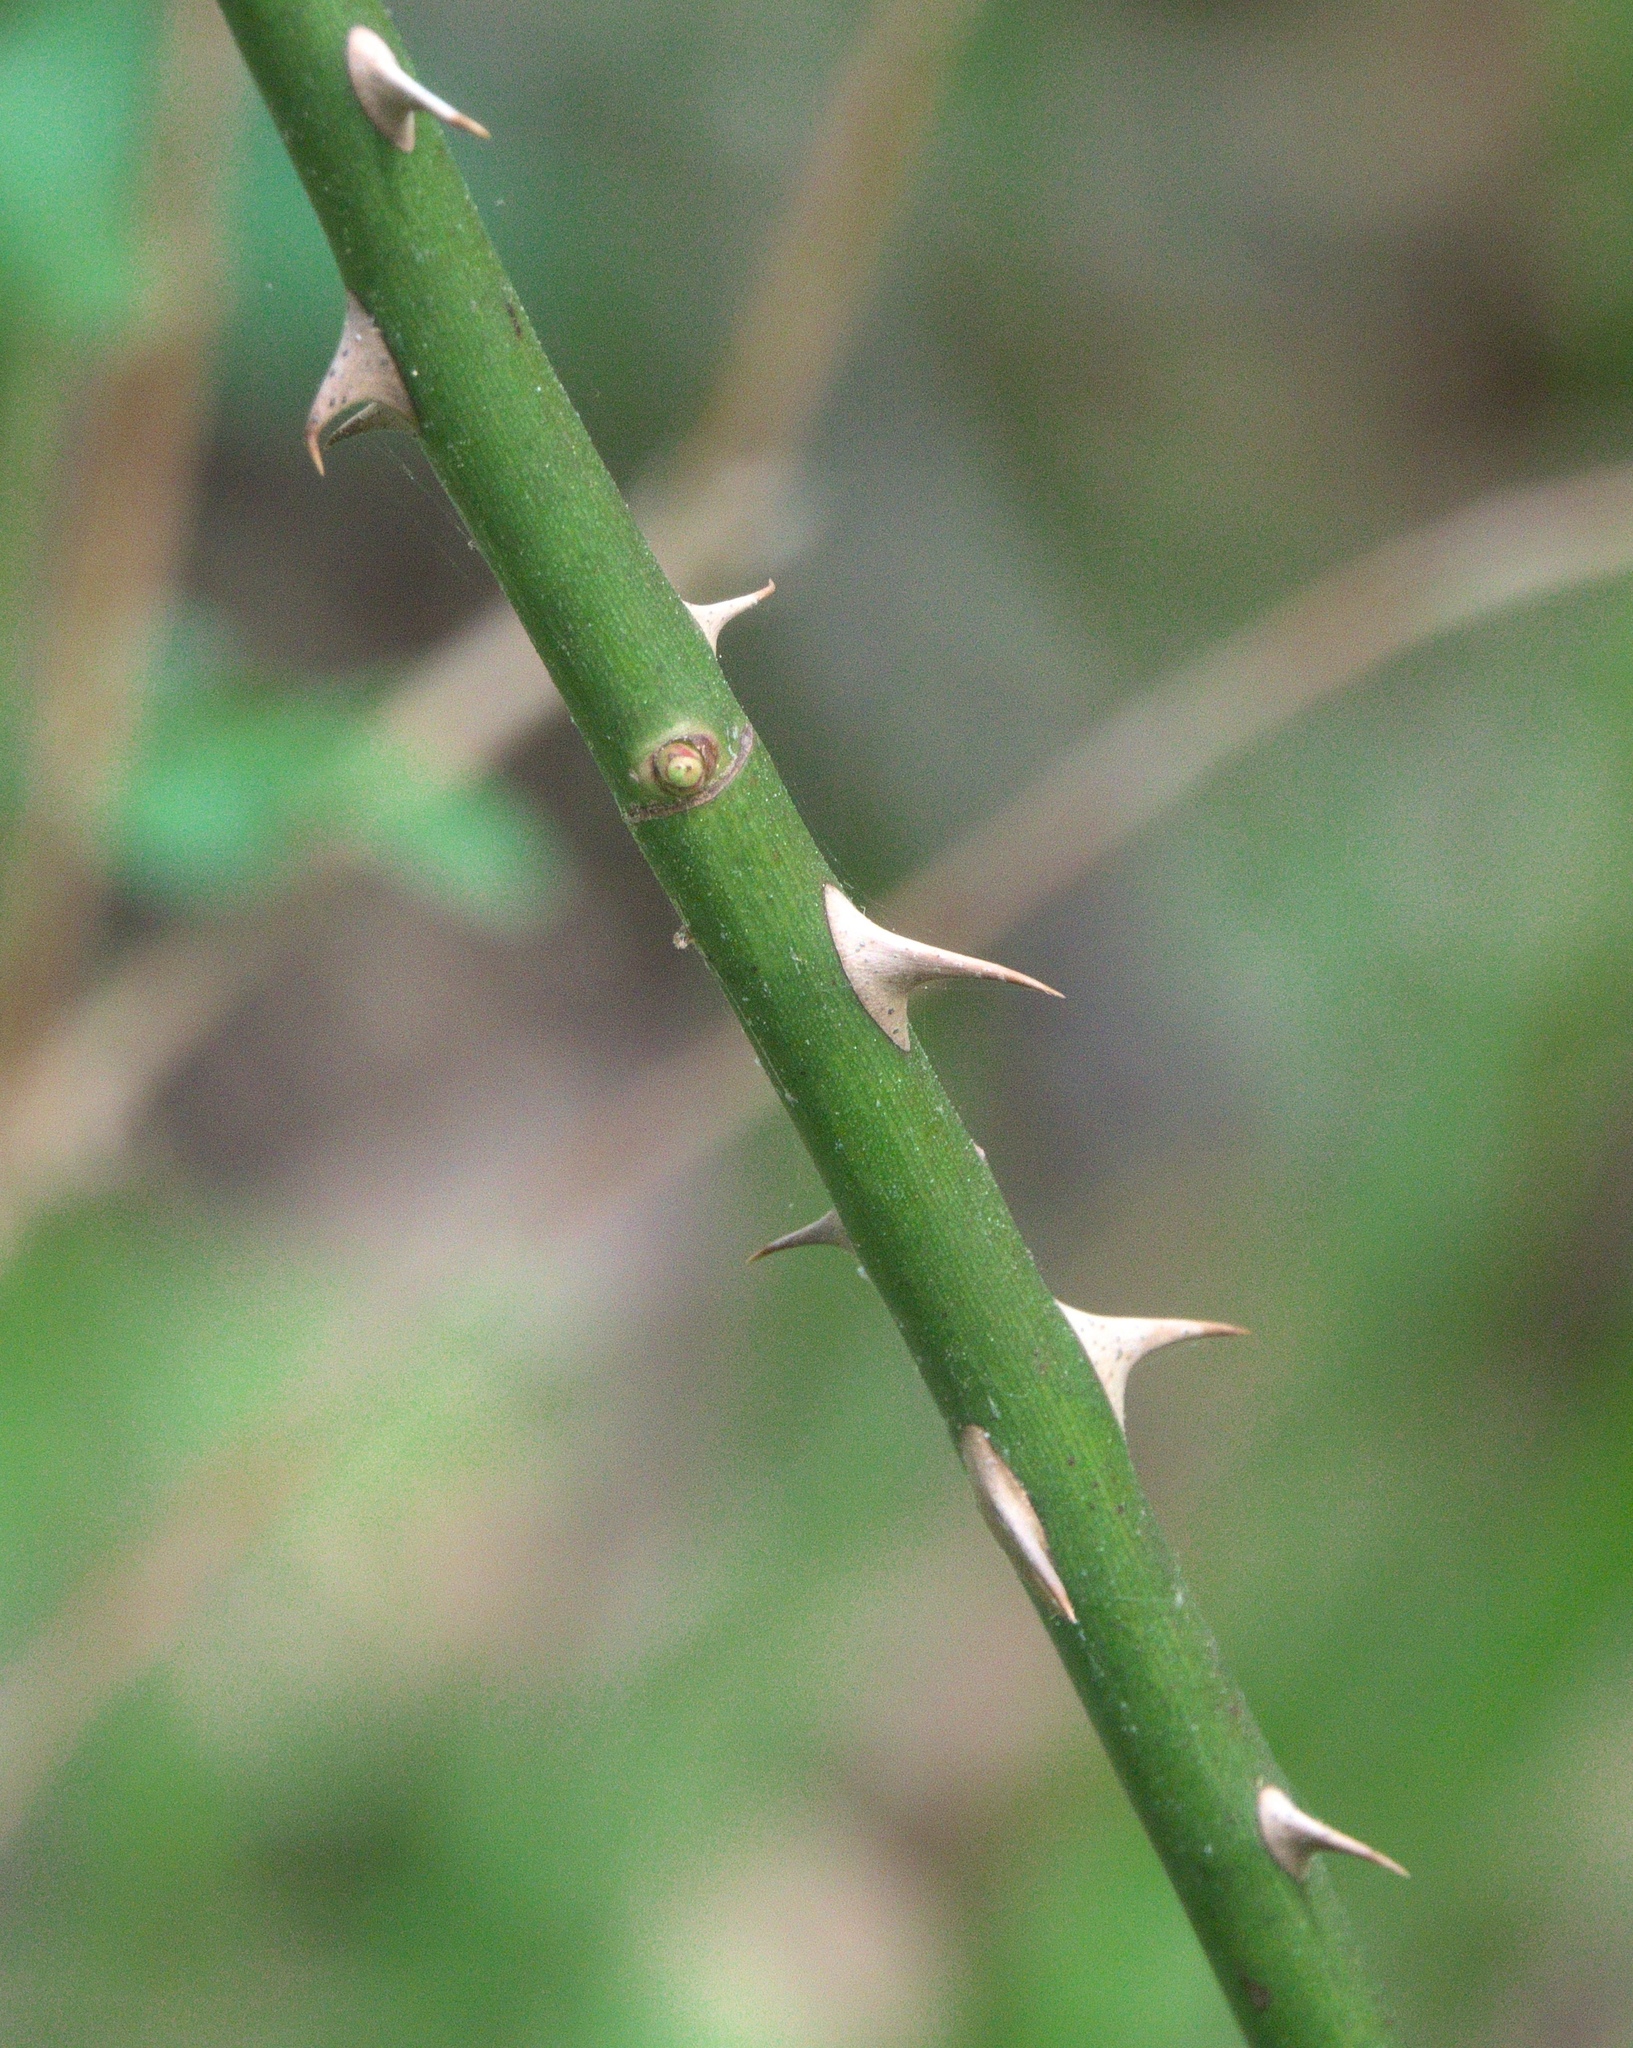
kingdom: Plantae
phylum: Tracheophyta
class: Magnoliopsida
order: Rosales
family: Rosaceae
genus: Rosa
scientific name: Rosa multiflora
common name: Multiflora rose
